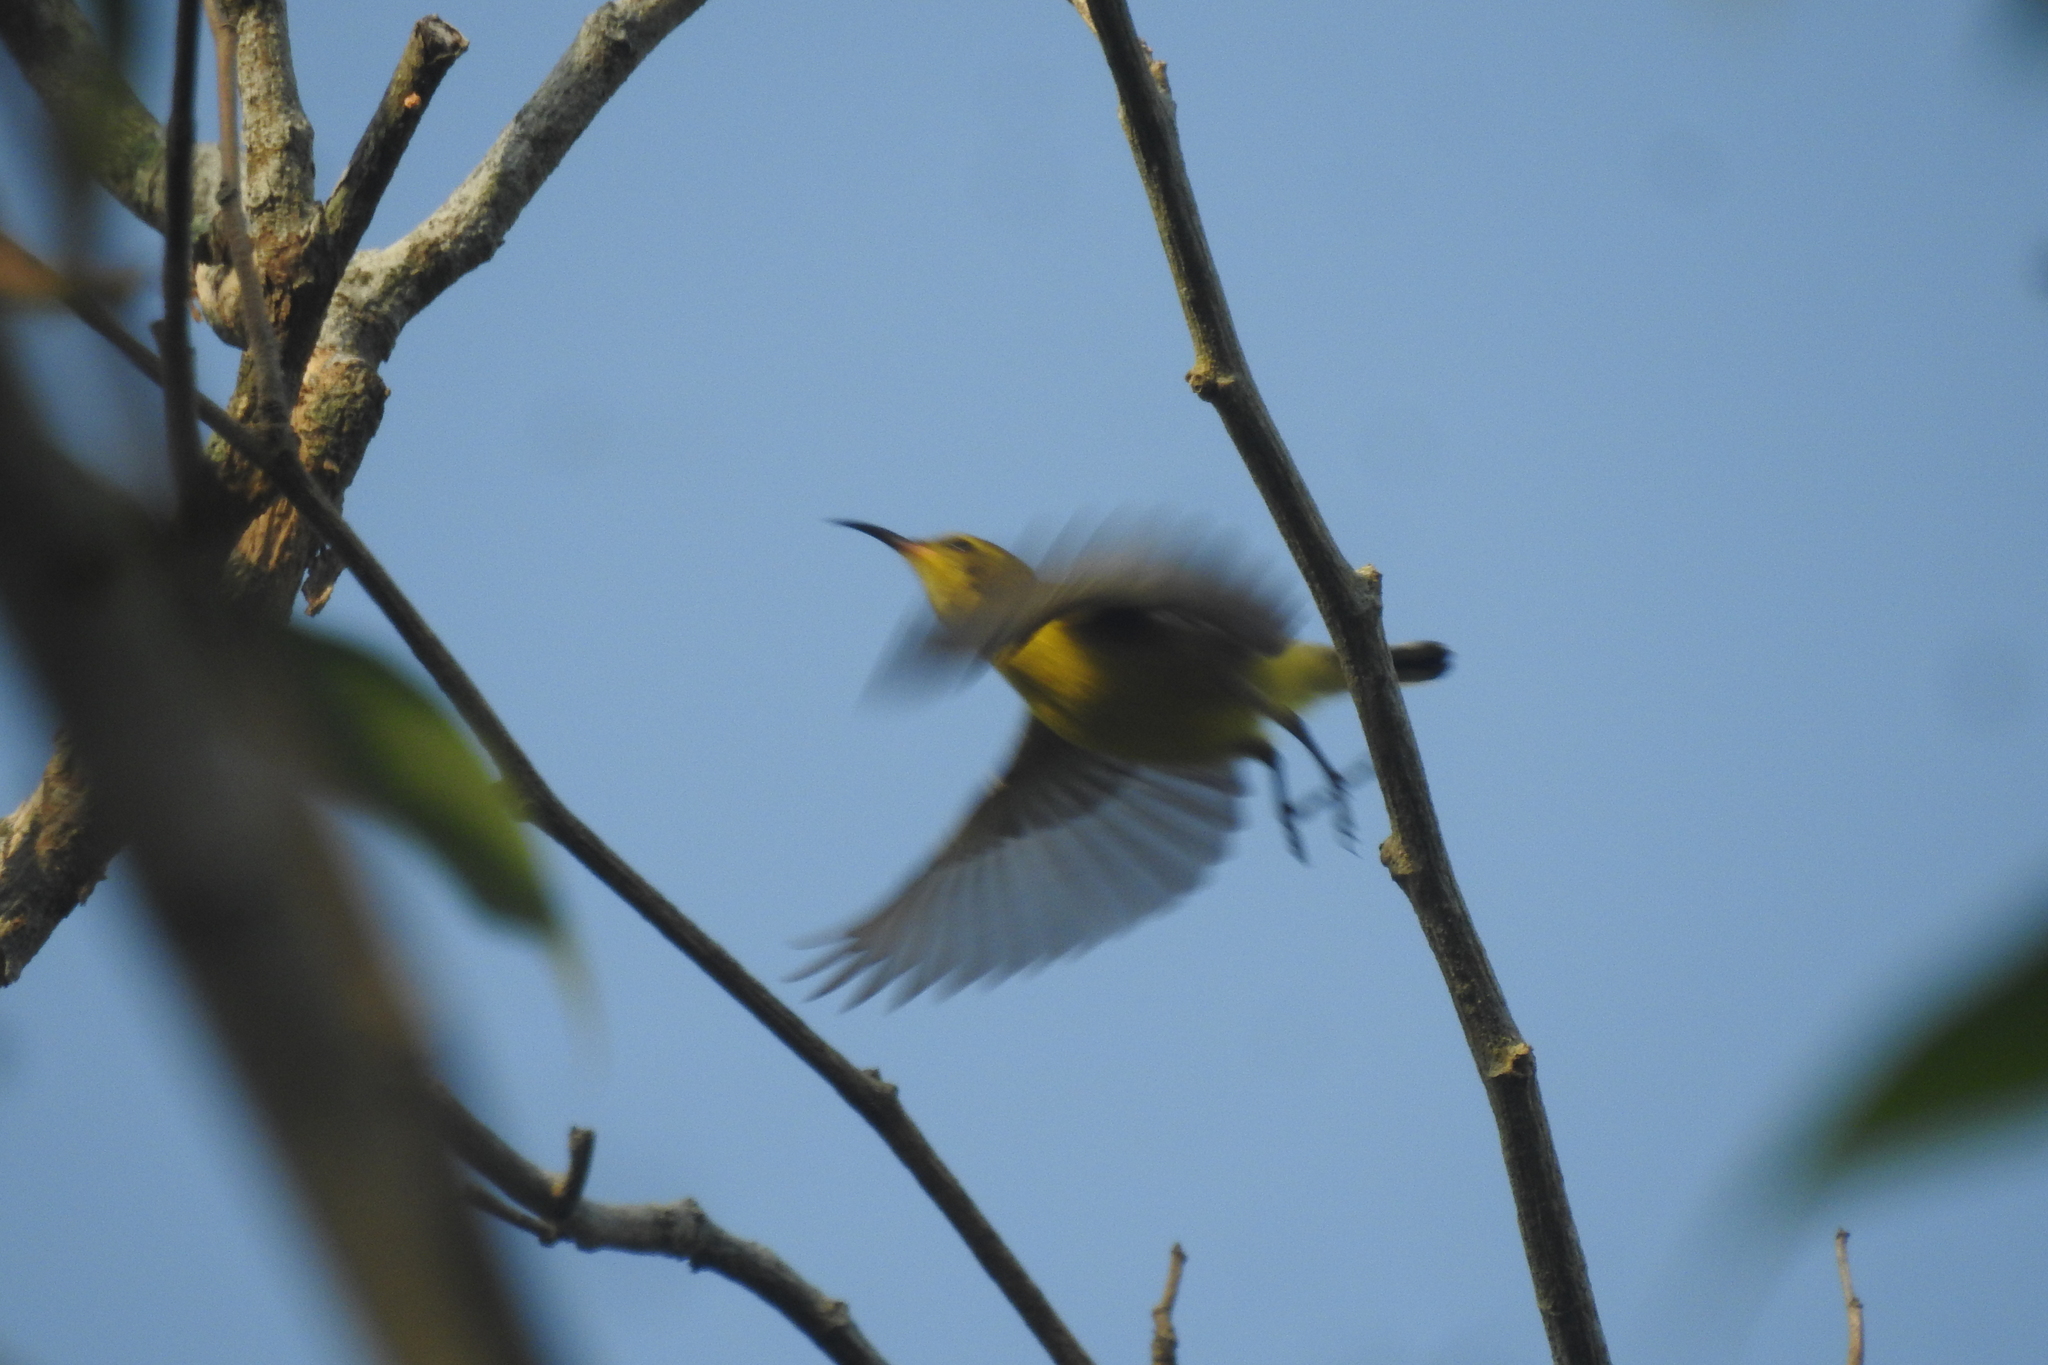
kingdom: Animalia
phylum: Chordata
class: Aves
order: Passeriformes
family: Nectariniidae
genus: Cinnyris
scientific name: Cinnyris
